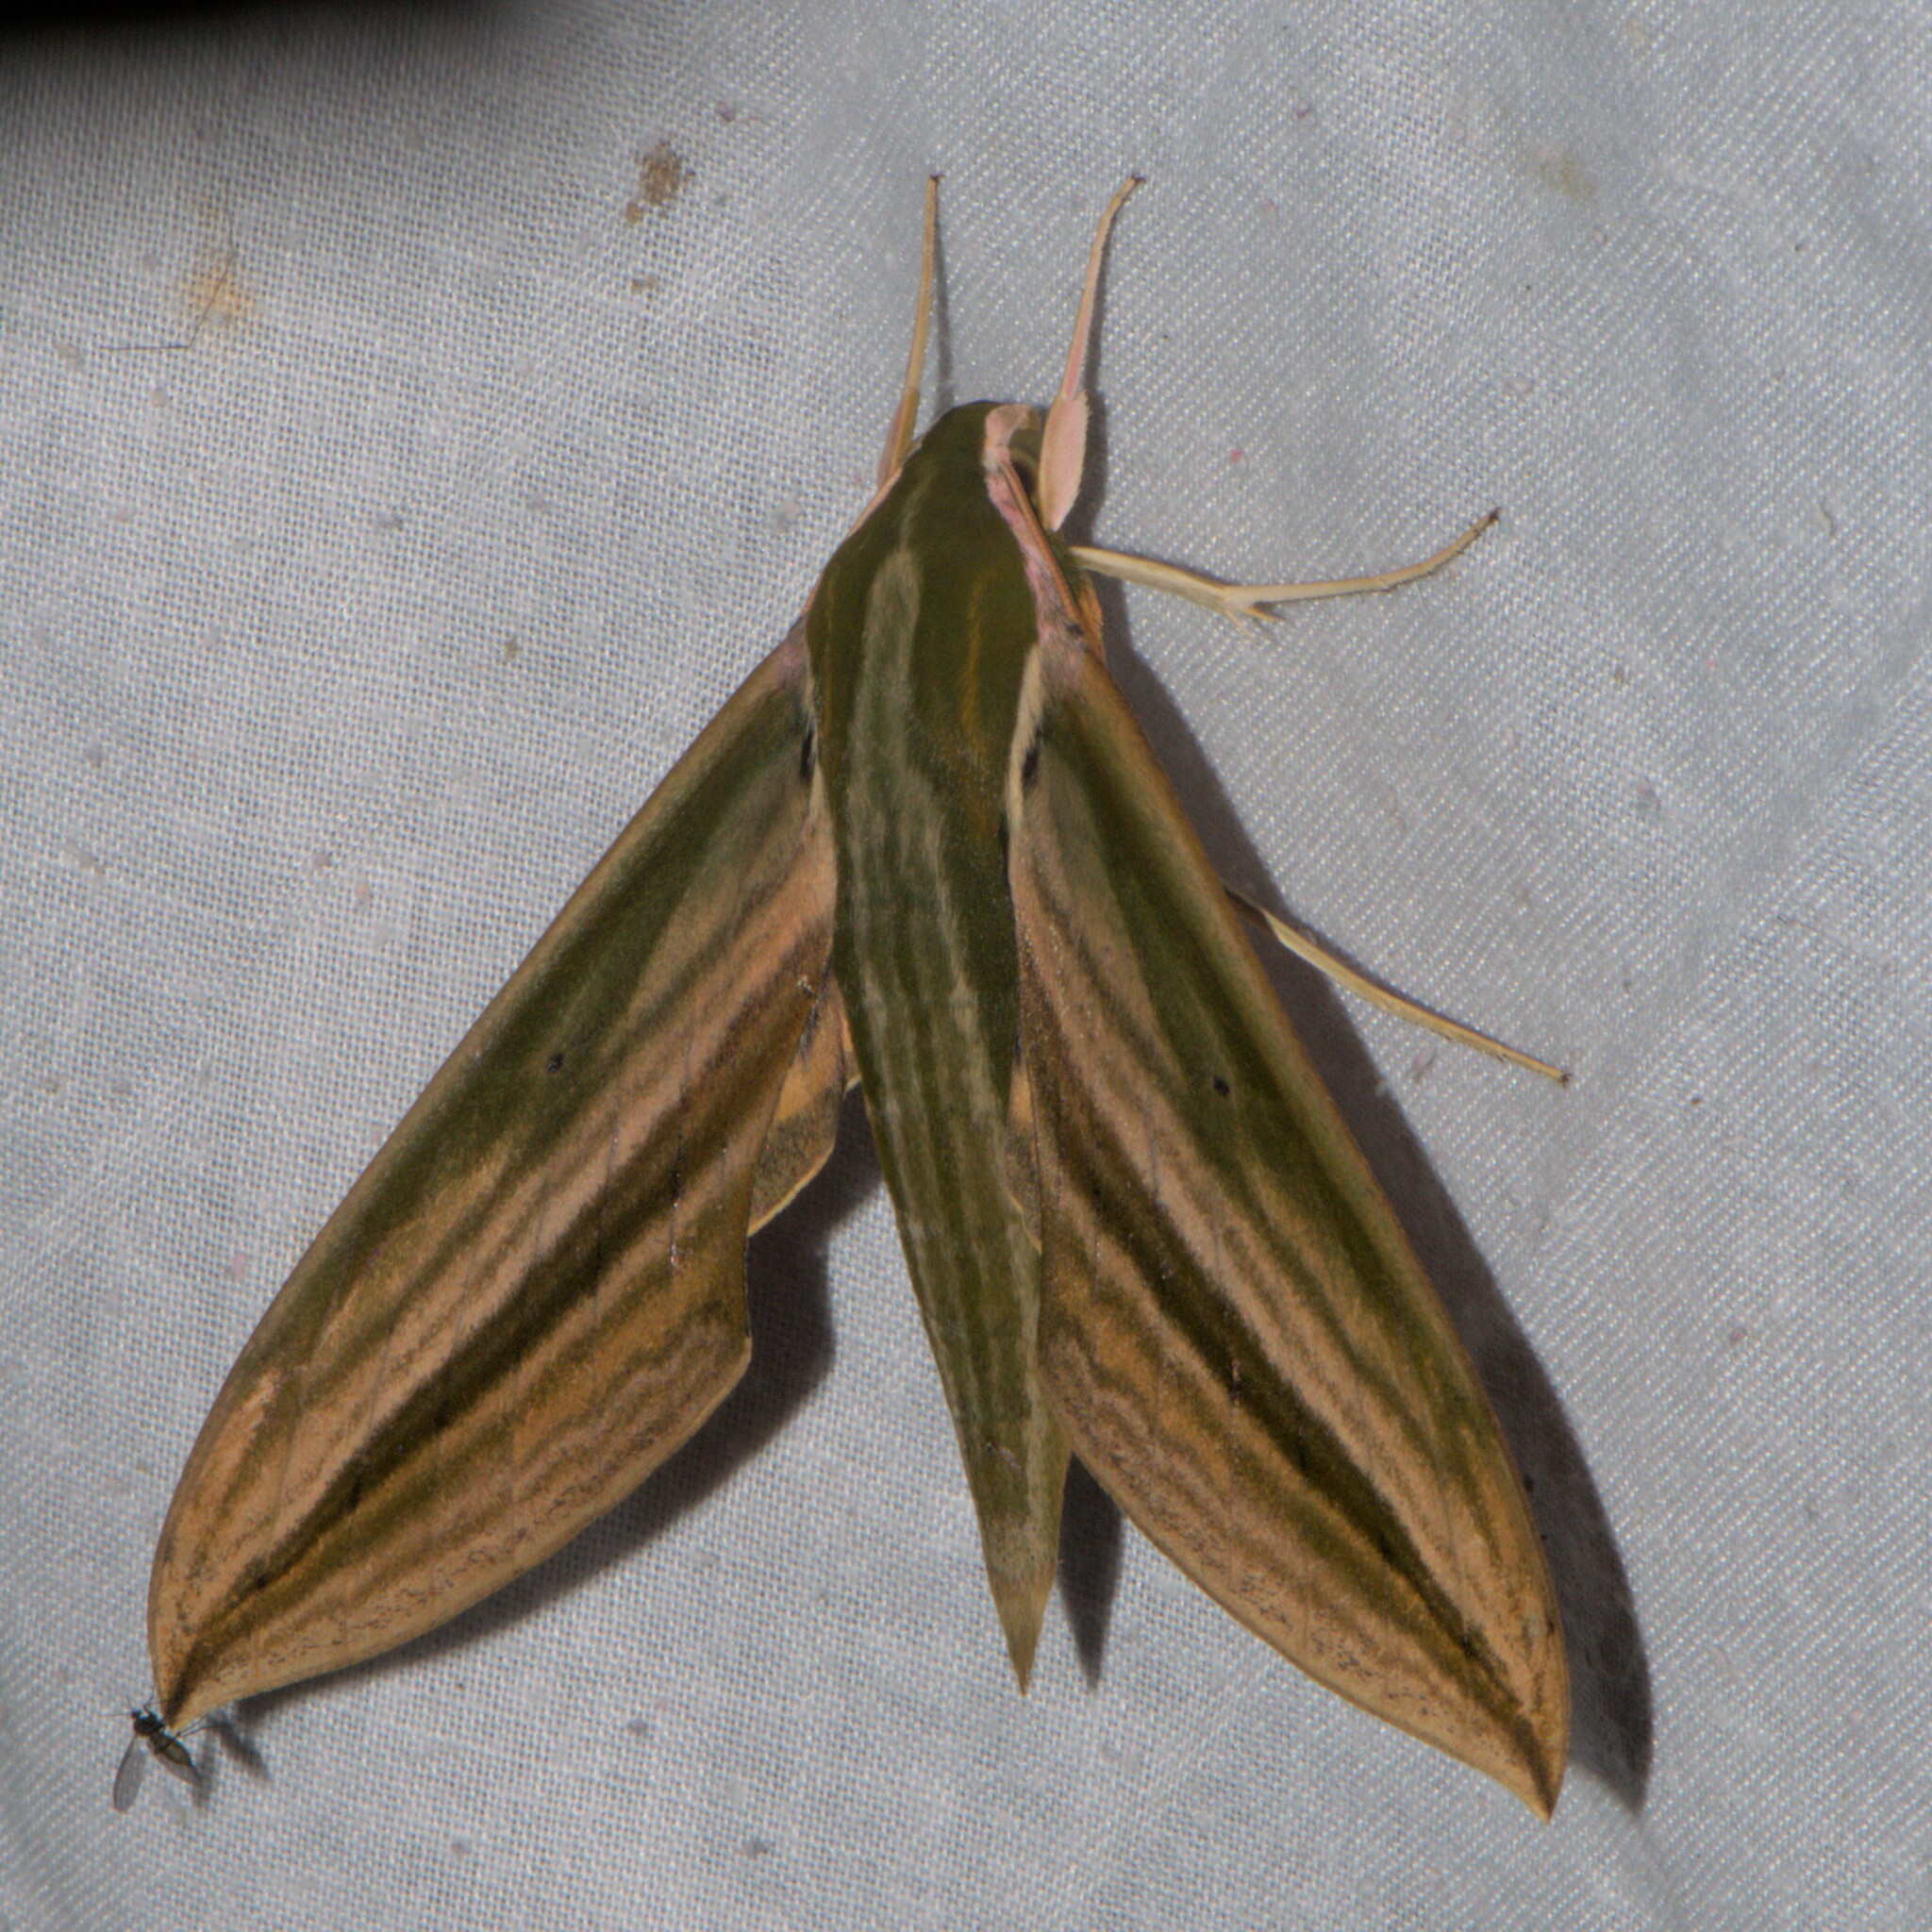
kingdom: Animalia
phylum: Arthropoda
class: Insecta
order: Lepidoptera
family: Sphingidae
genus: Cechetra
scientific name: Cechetra lineosa
